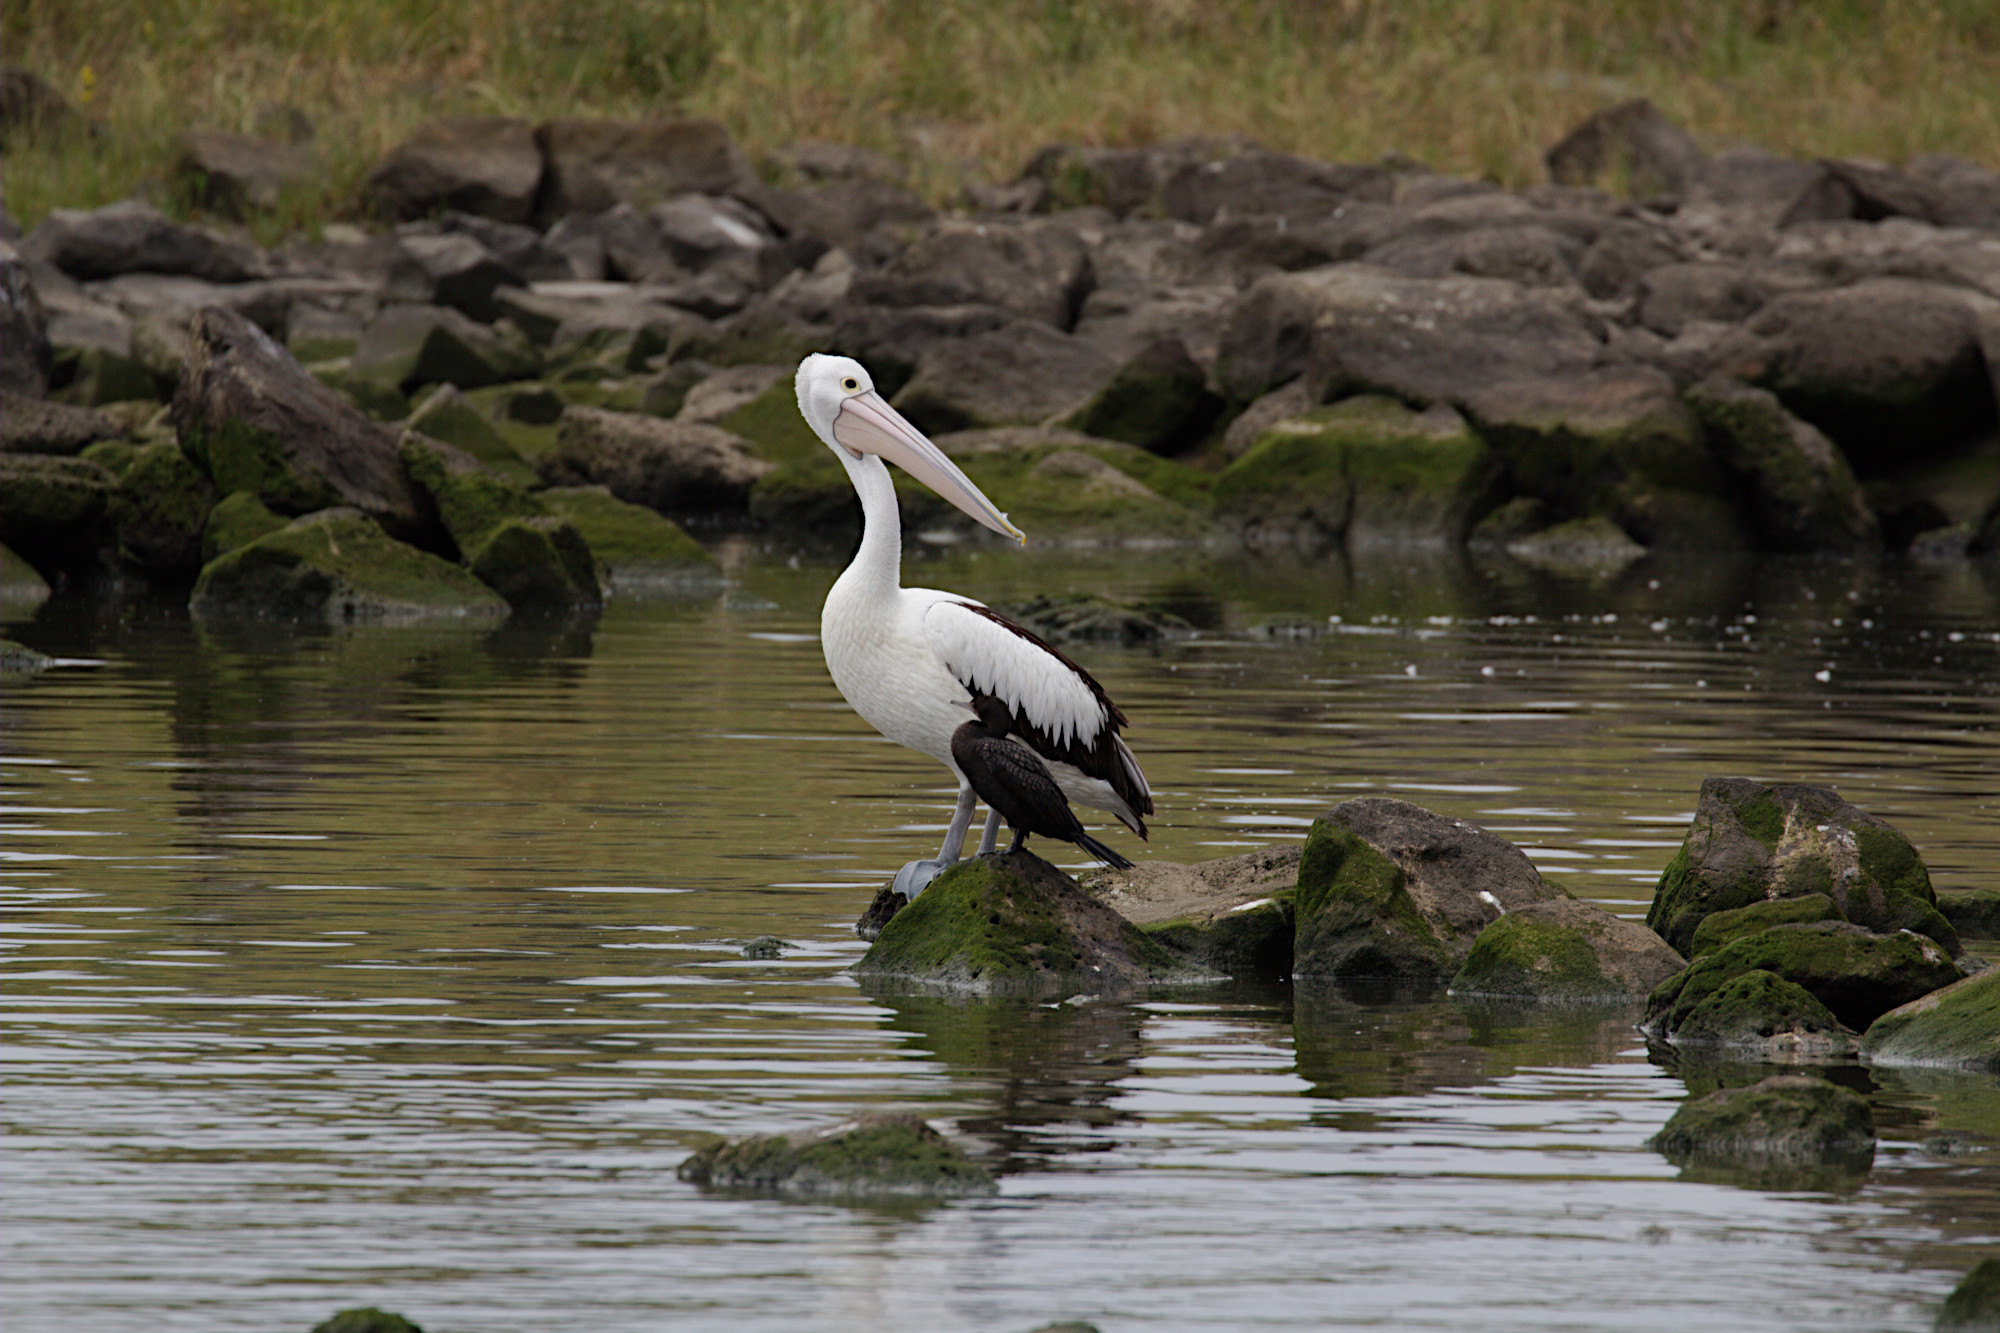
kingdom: Animalia
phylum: Chordata
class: Aves
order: Pelecaniformes
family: Pelecanidae
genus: Pelecanus
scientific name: Pelecanus conspicillatus
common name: Australian pelican
